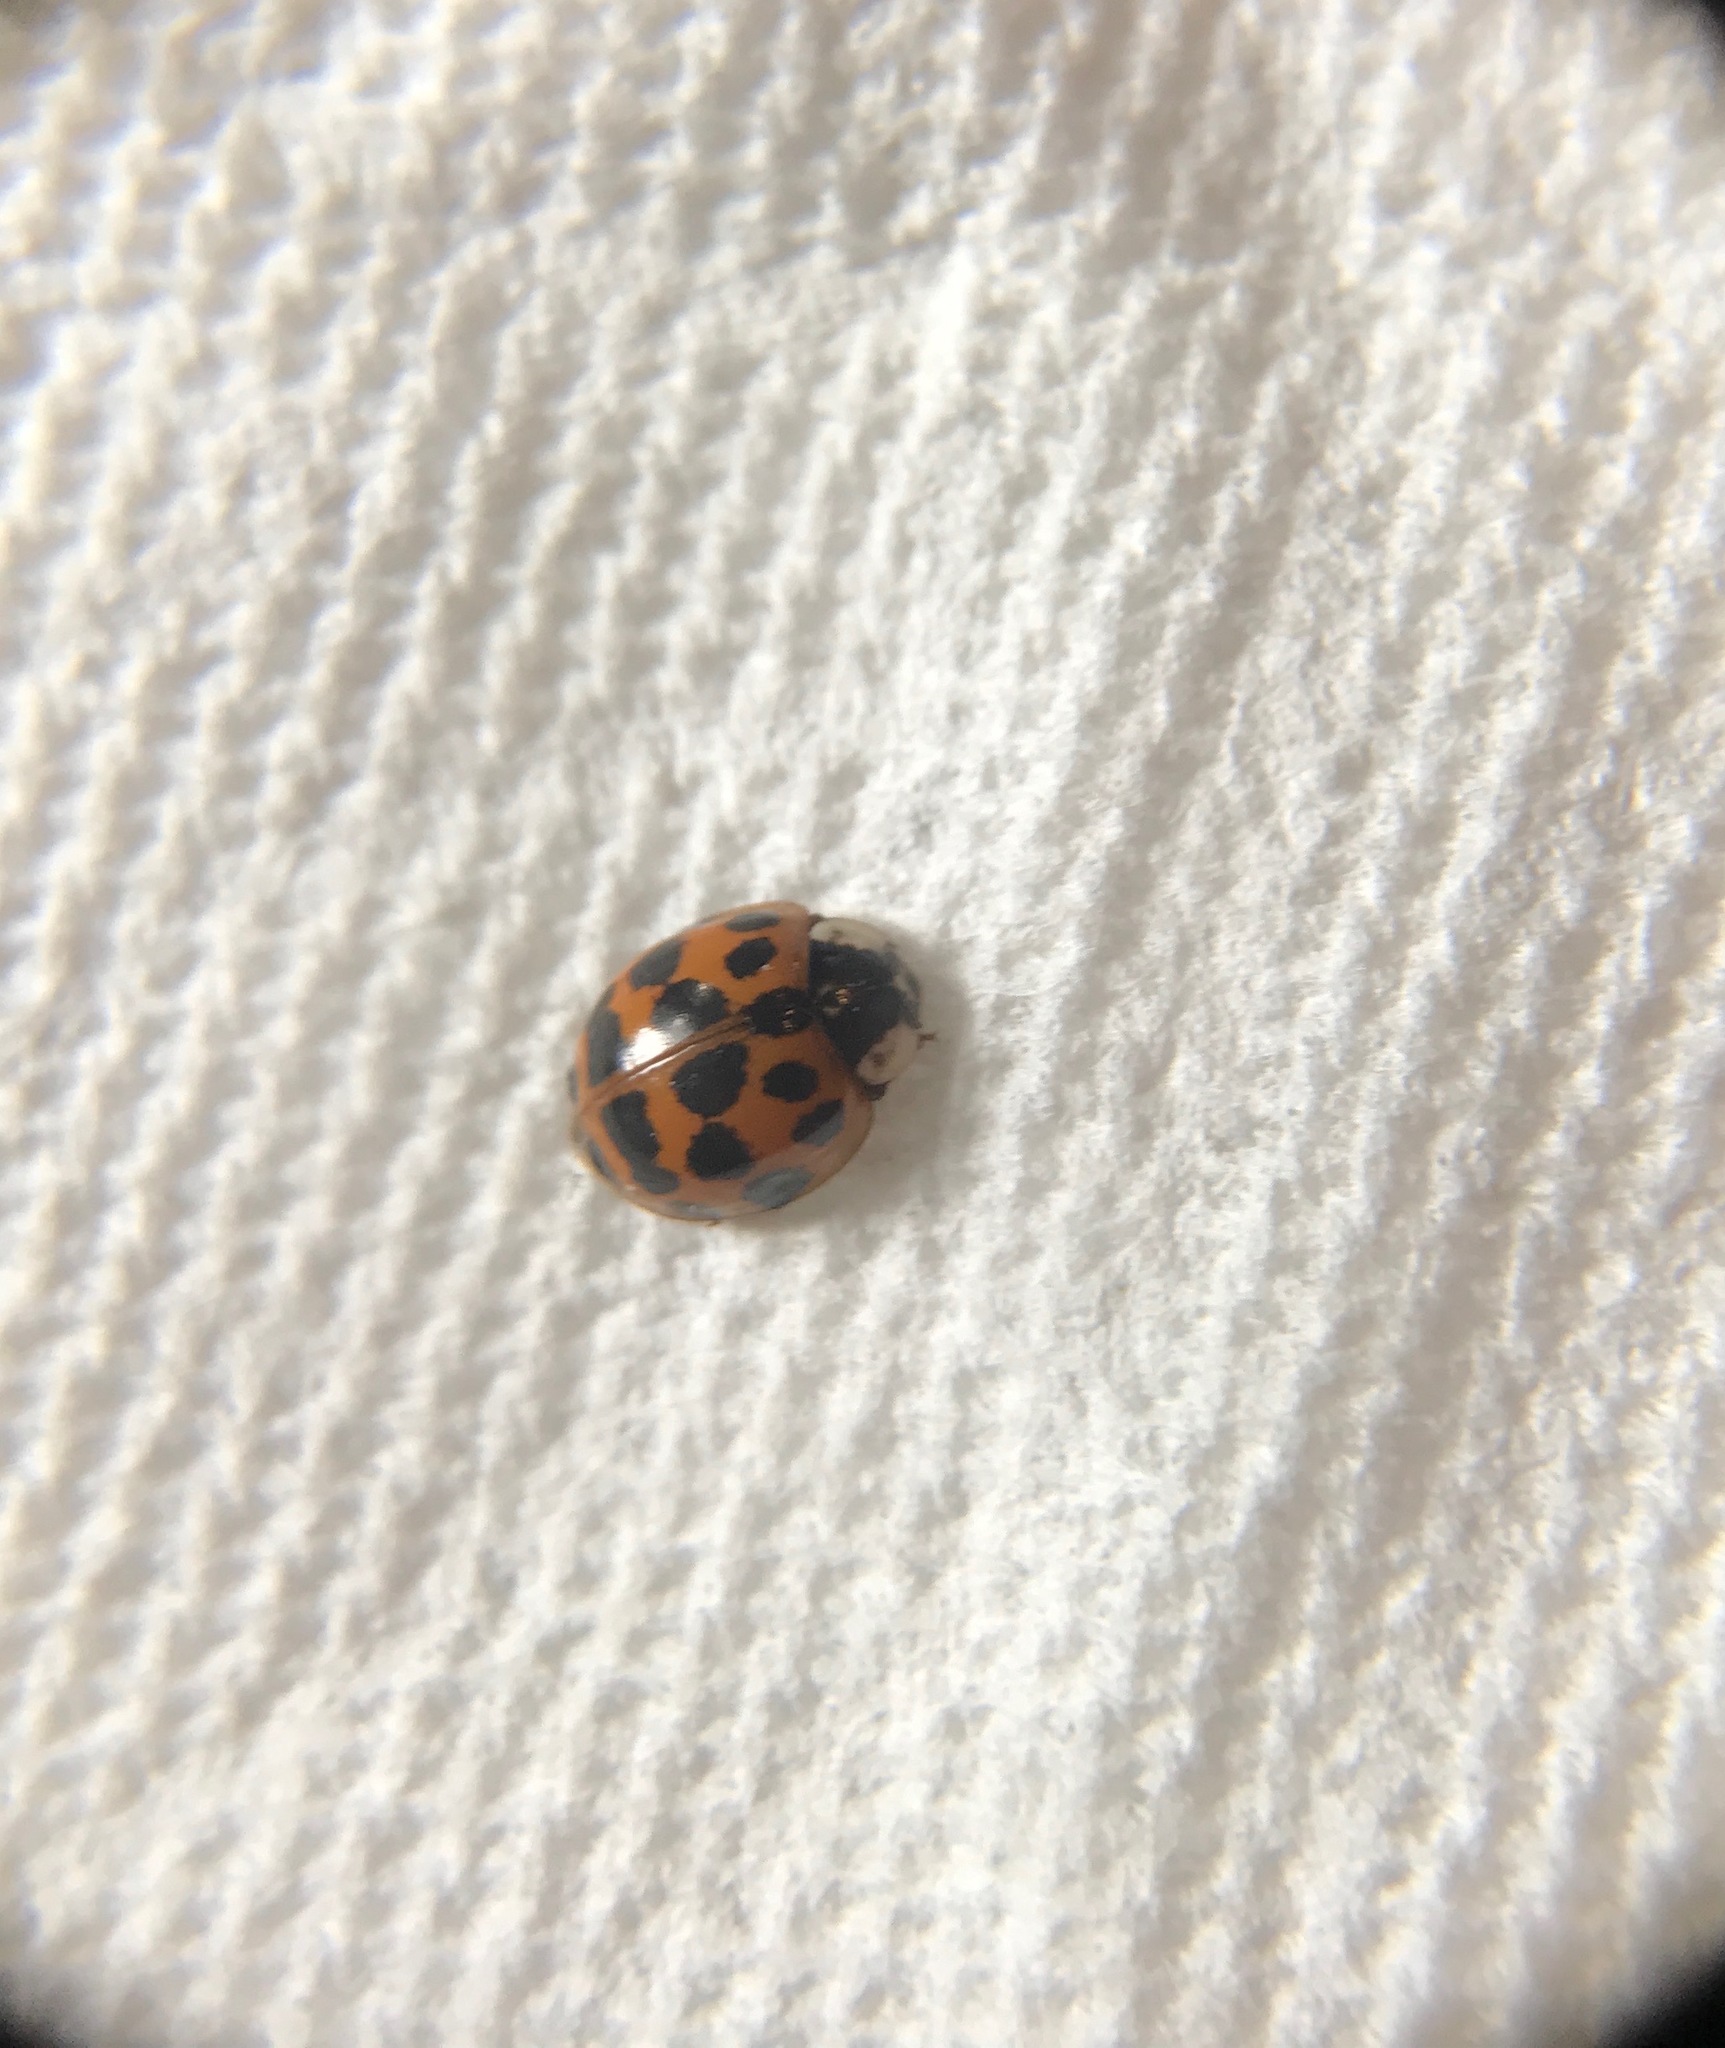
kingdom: Animalia
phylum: Arthropoda
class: Insecta
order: Coleoptera
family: Coccinellidae
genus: Harmonia
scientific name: Harmonia axyridis
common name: Harlequin ladybird
